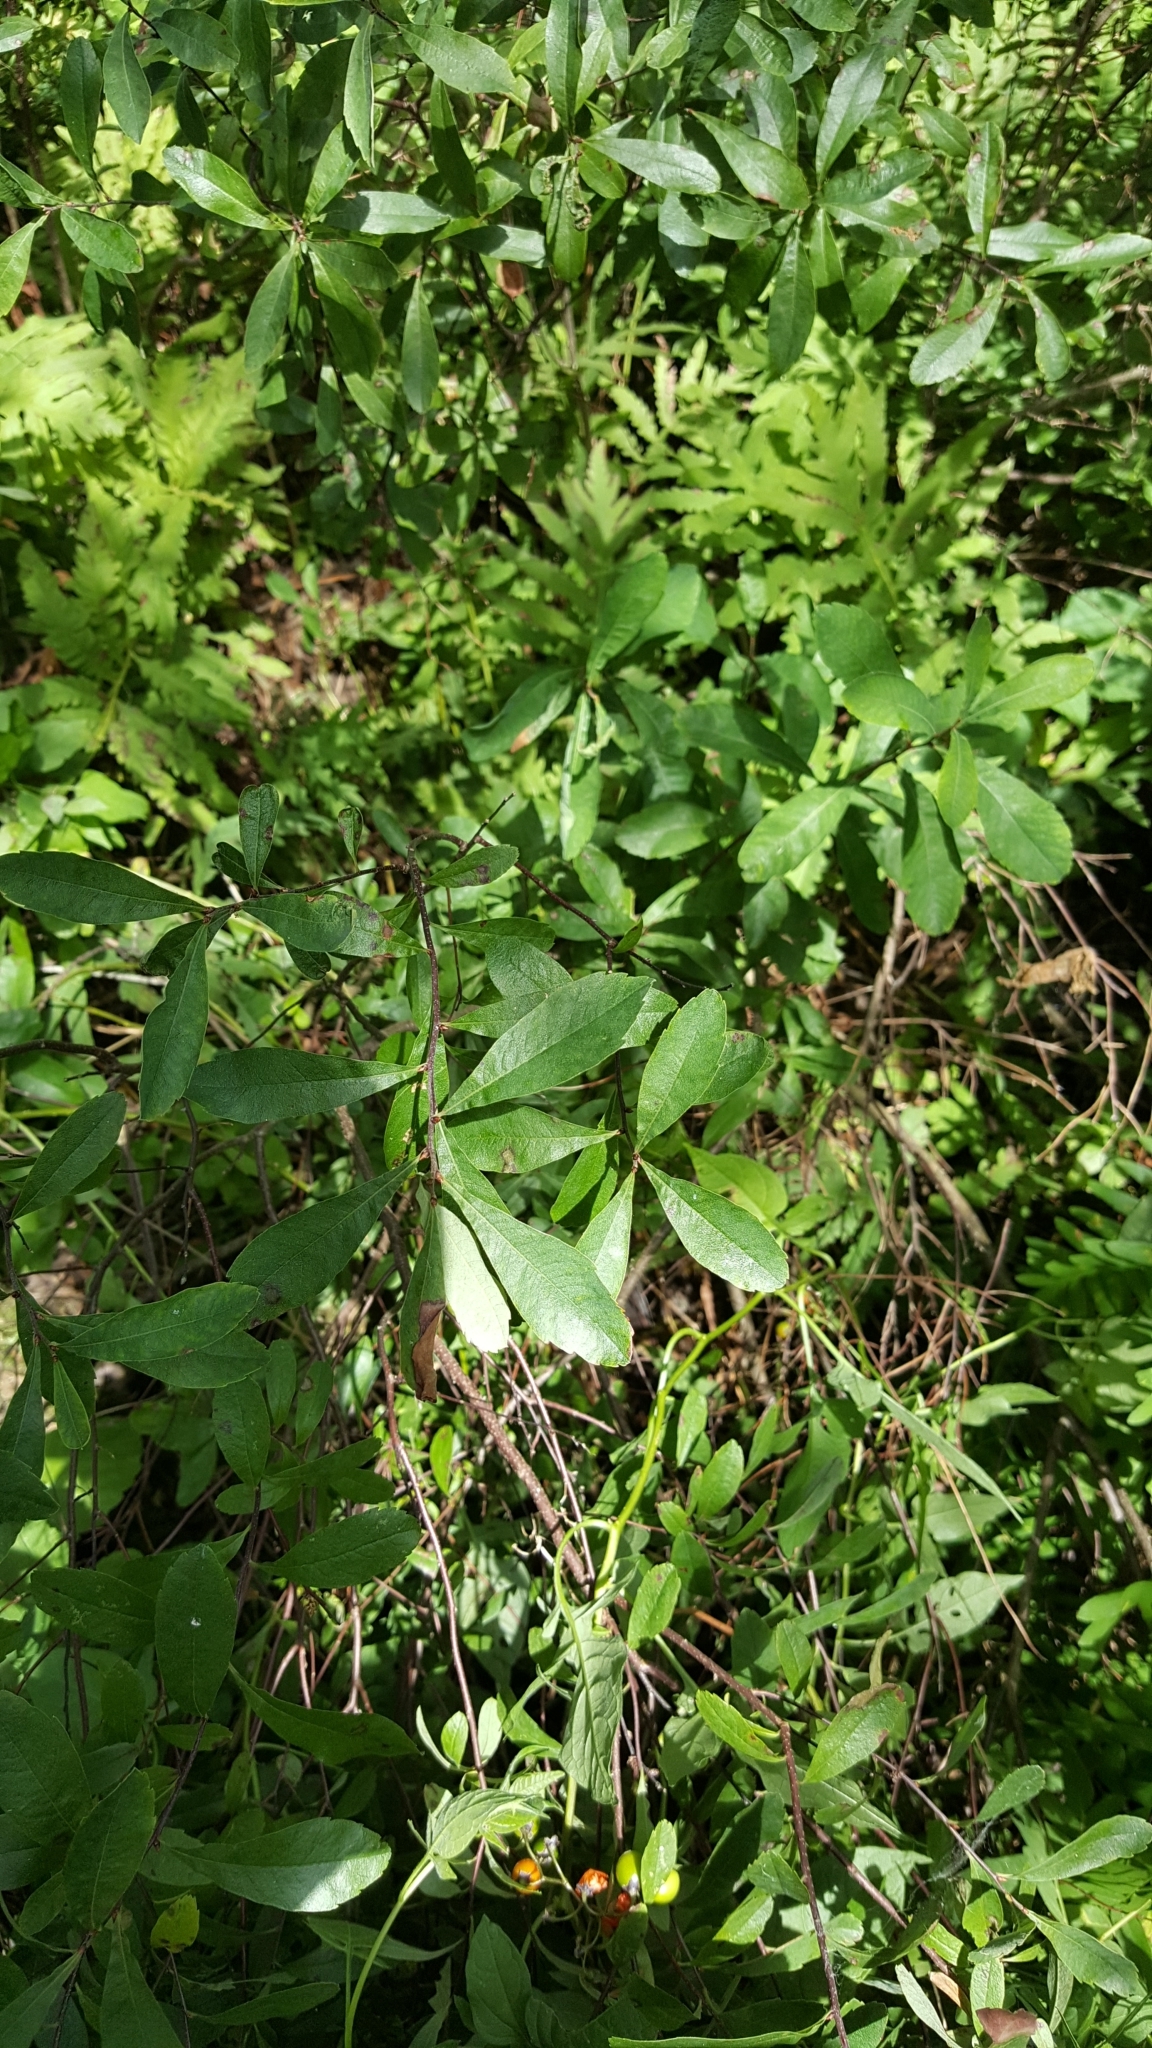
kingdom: Plantae
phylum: Tracheophyta
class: Magnoliopsida
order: Fagales
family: Myricaceae
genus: Myrica
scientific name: Myrica gale
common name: Sweet gale
